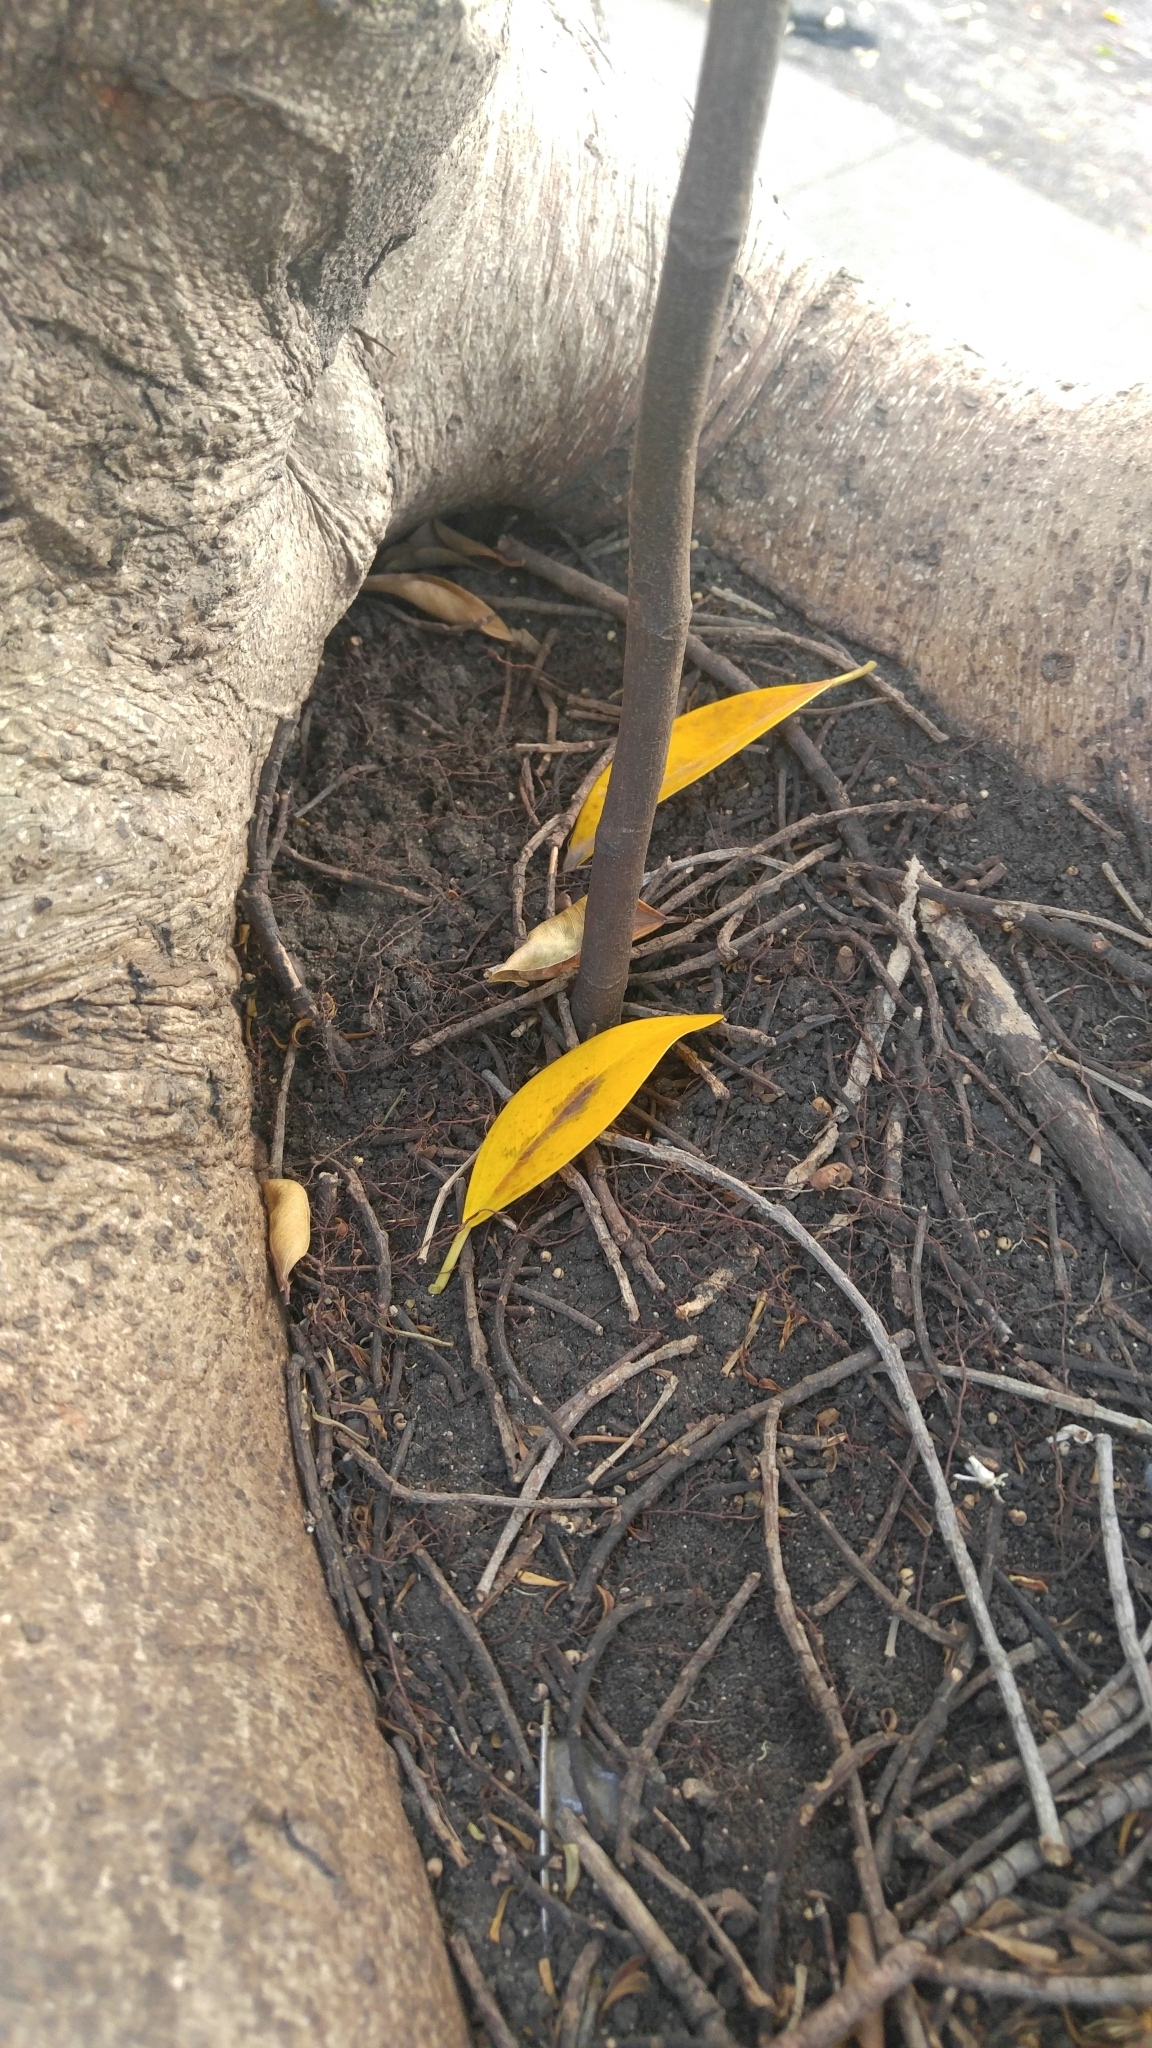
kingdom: Plantae
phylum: Tracheophyta
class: Magnoliopsida
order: Sapindales
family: Sapindaceae
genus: Cupaniopsis
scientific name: Cupaniopsis anacardioides
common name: Carrotwood
